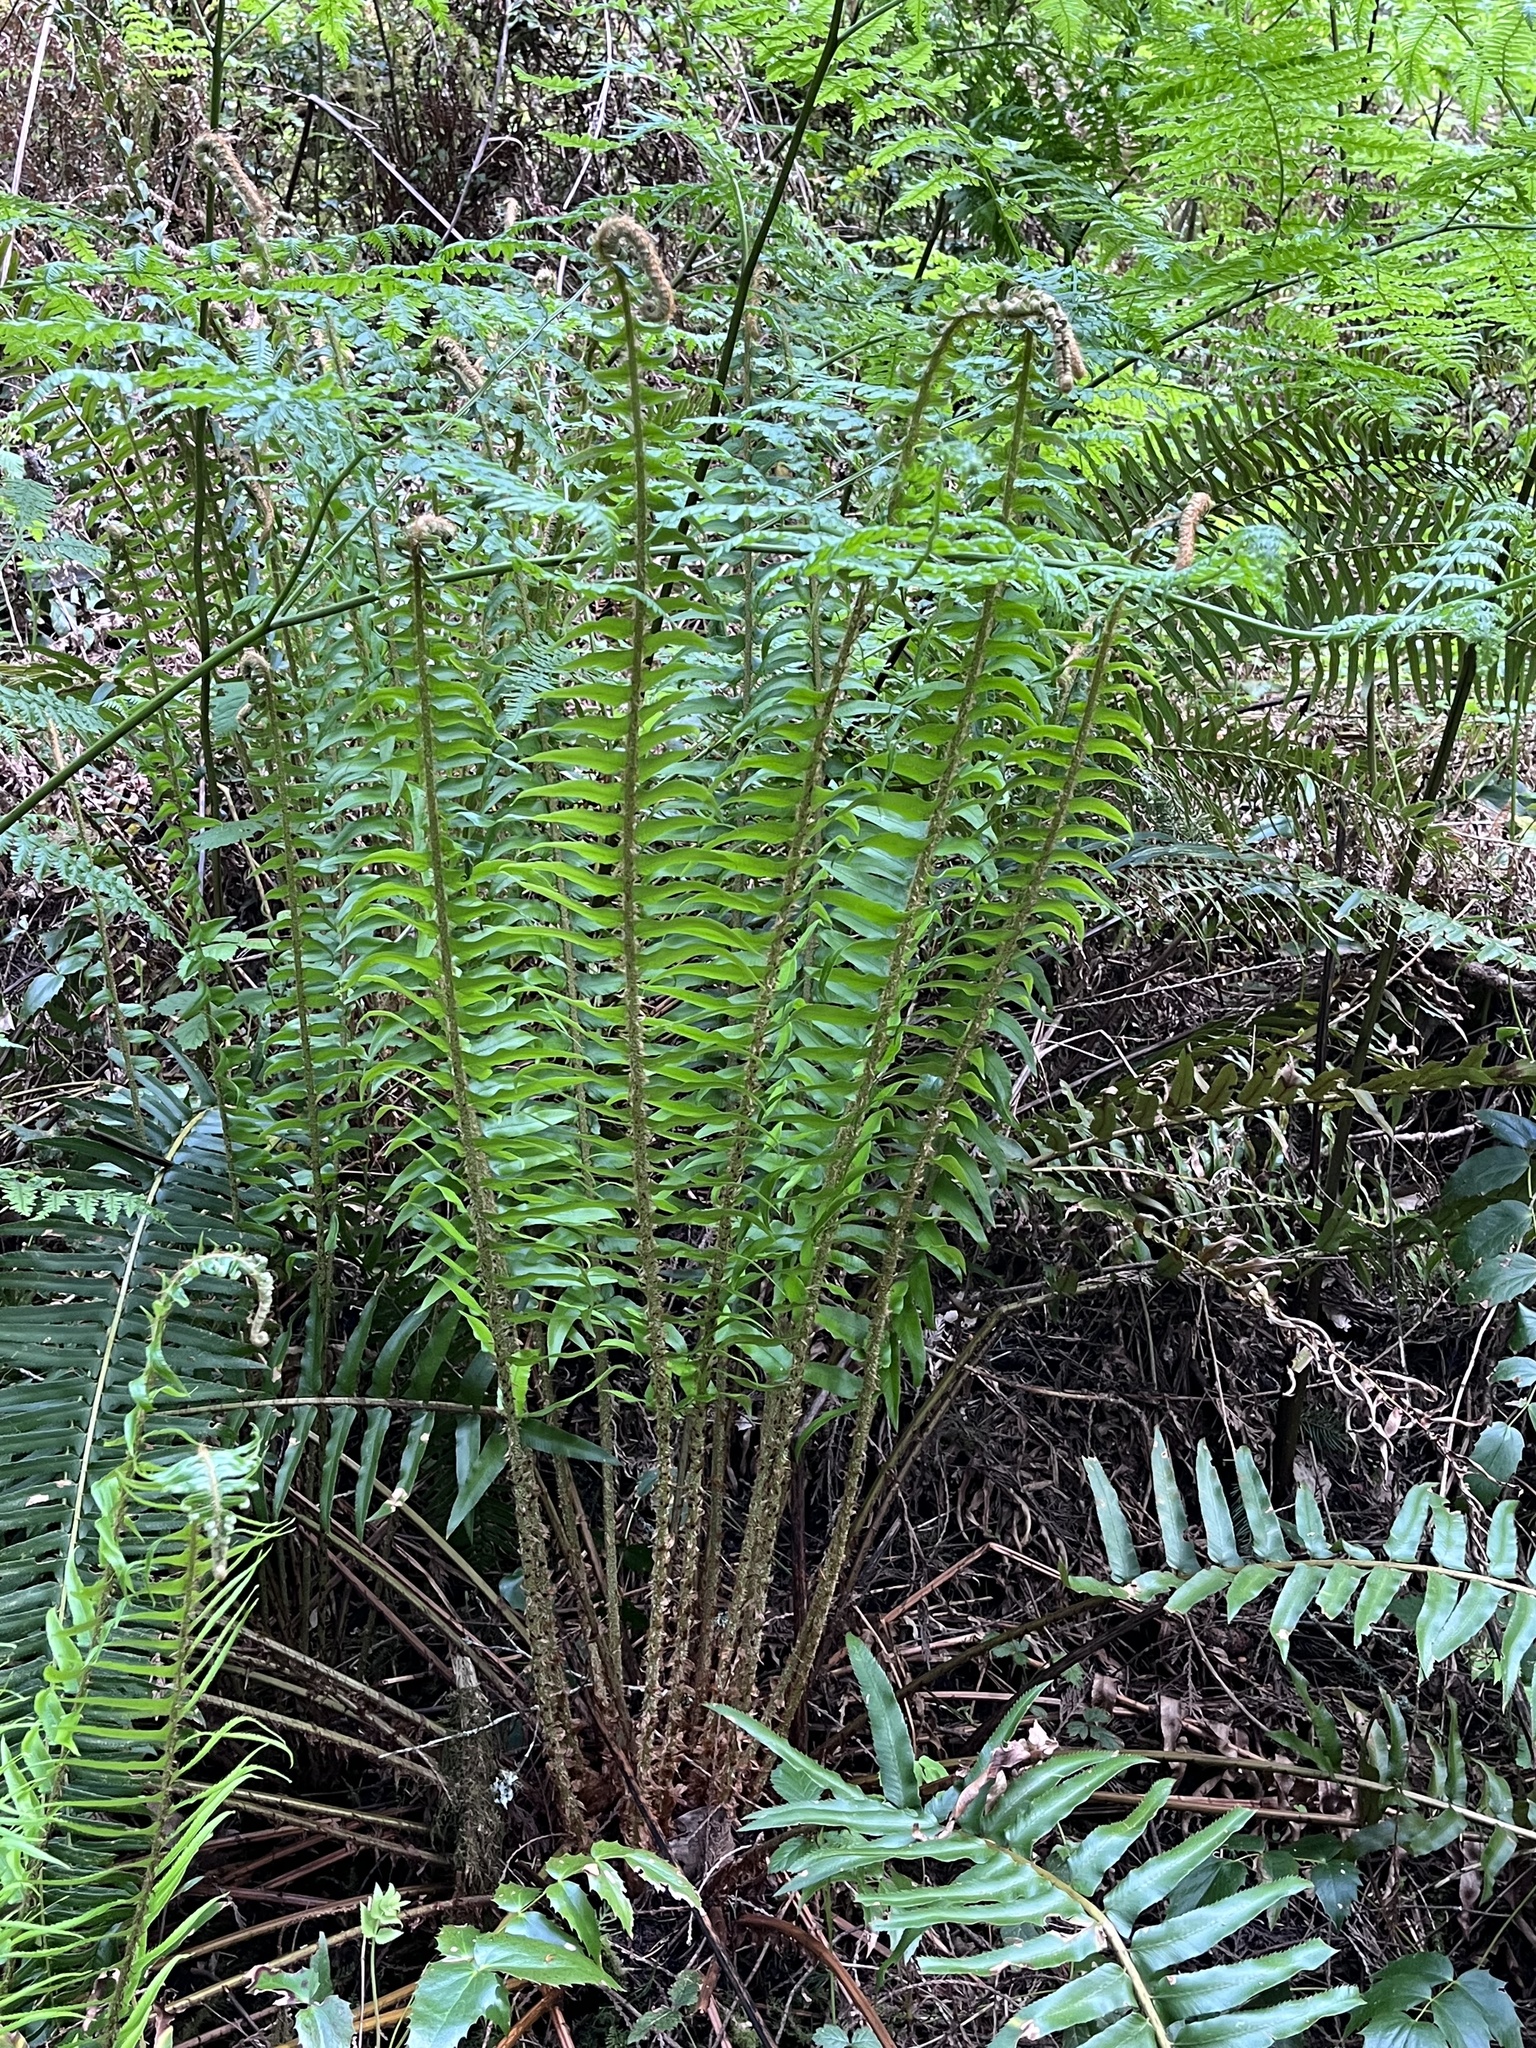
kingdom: Plantae
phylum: Tracheophyta
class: Polypodiopsida
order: Polypodiales
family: Dryopteridaceae
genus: Polystichum
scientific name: Polystichum munitum
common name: Western sword-fern
